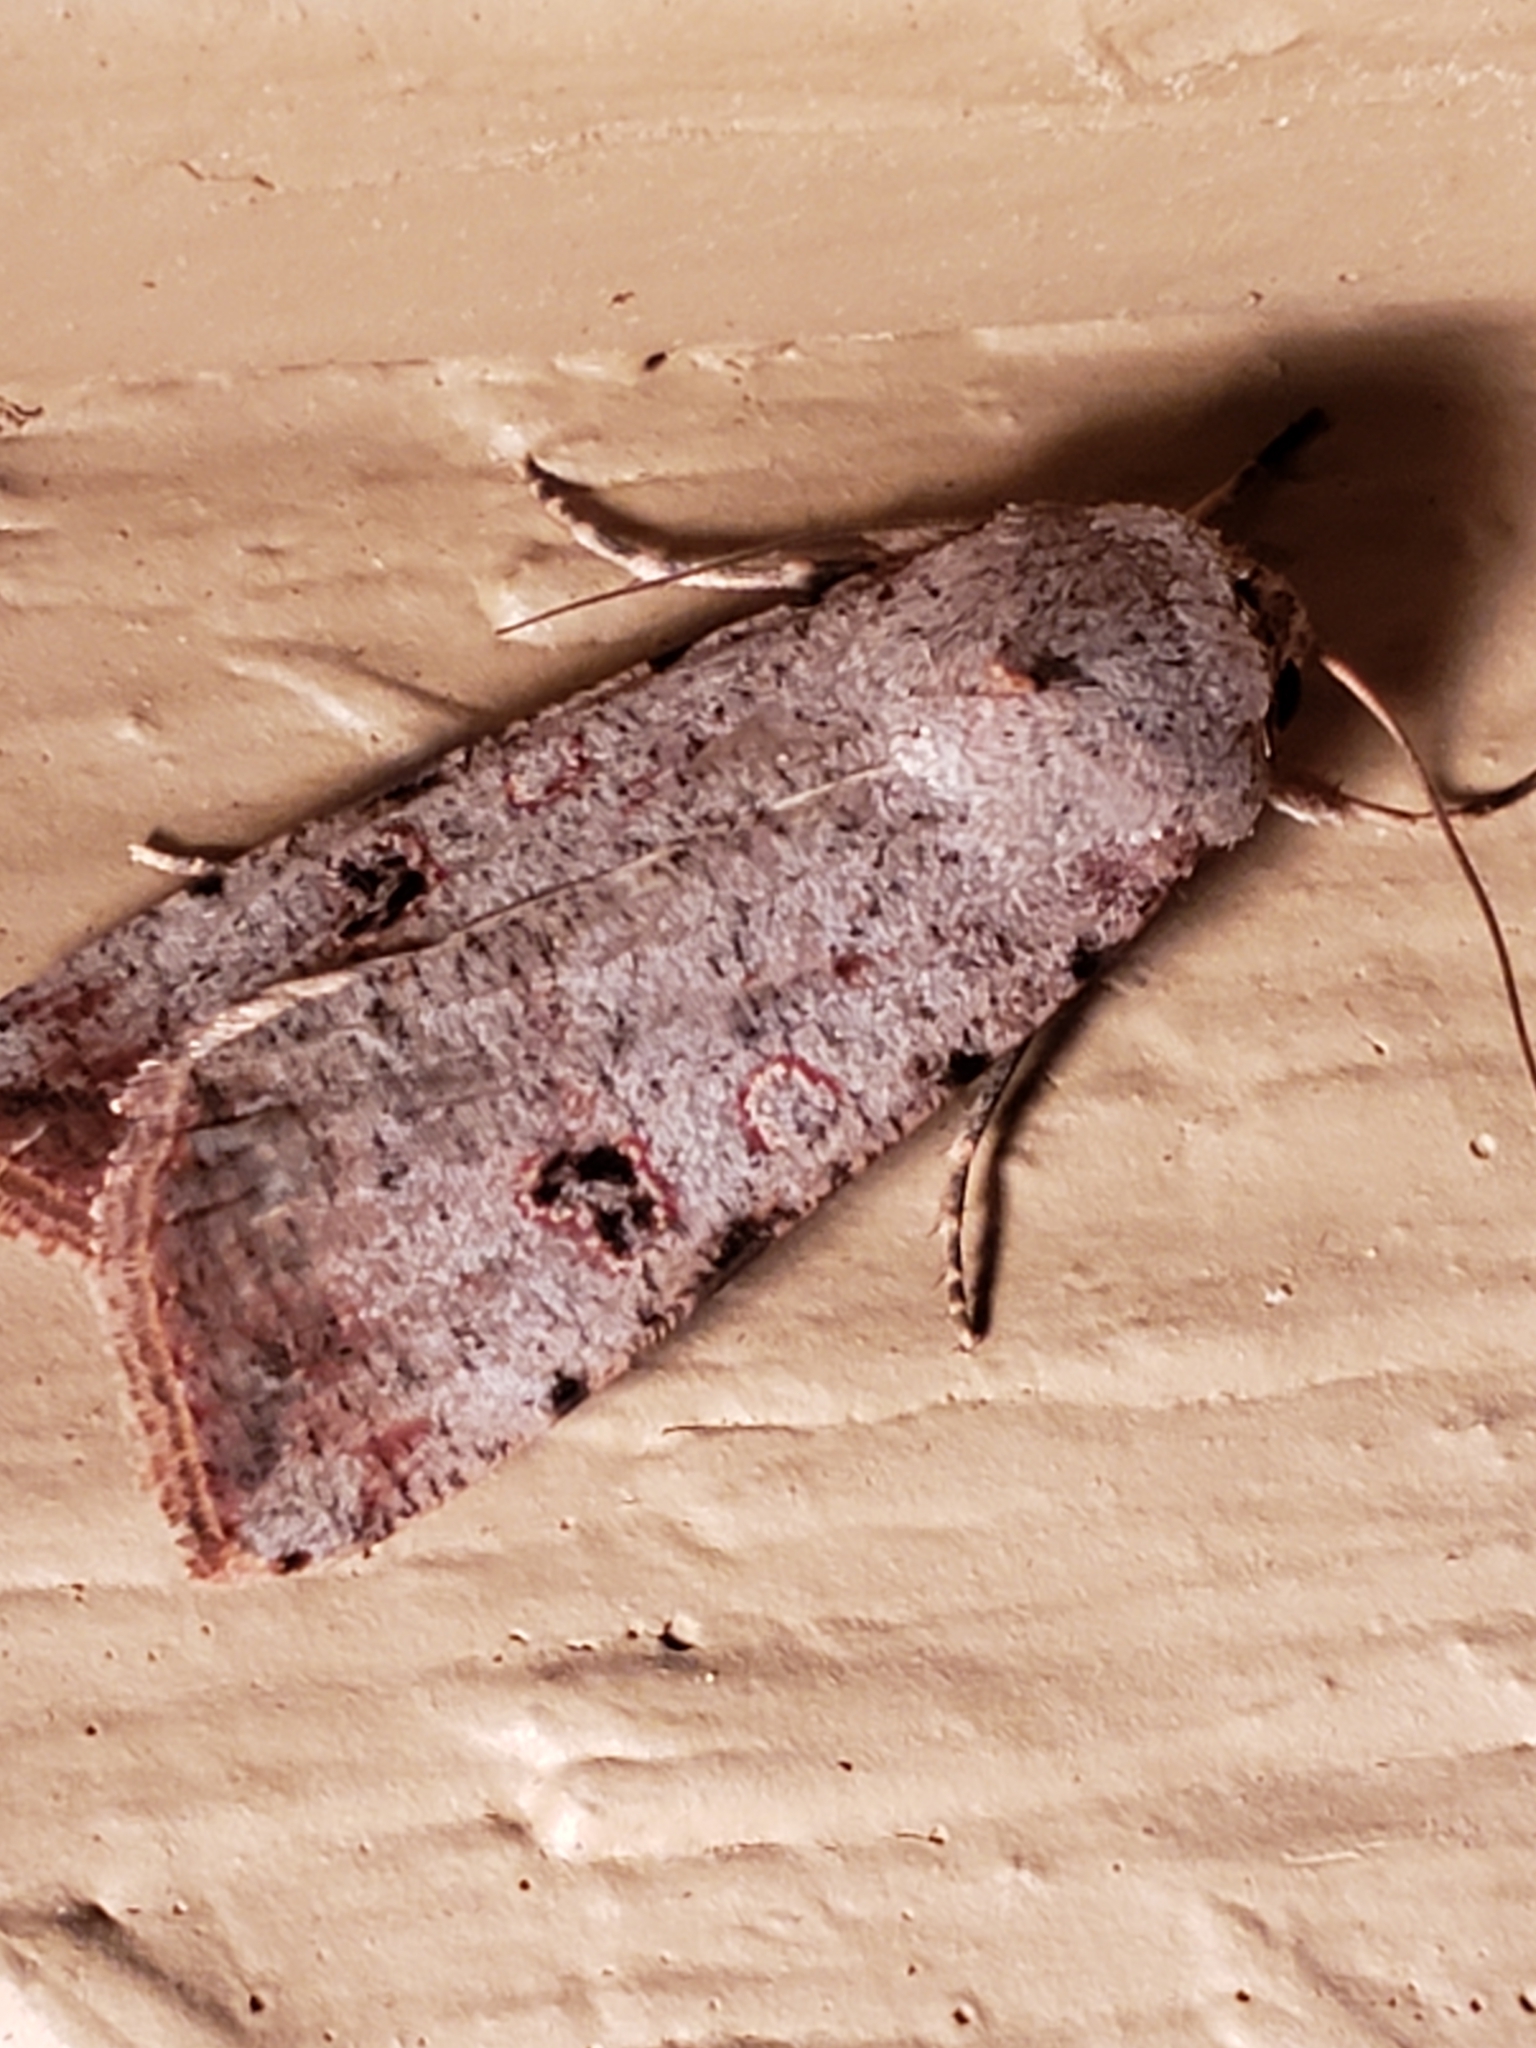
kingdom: Animalia
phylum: Arthropoda
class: Insecta
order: Lepidoptera
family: Noctuidae
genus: Anicla
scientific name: Anicla infecta
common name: Green cutworm
